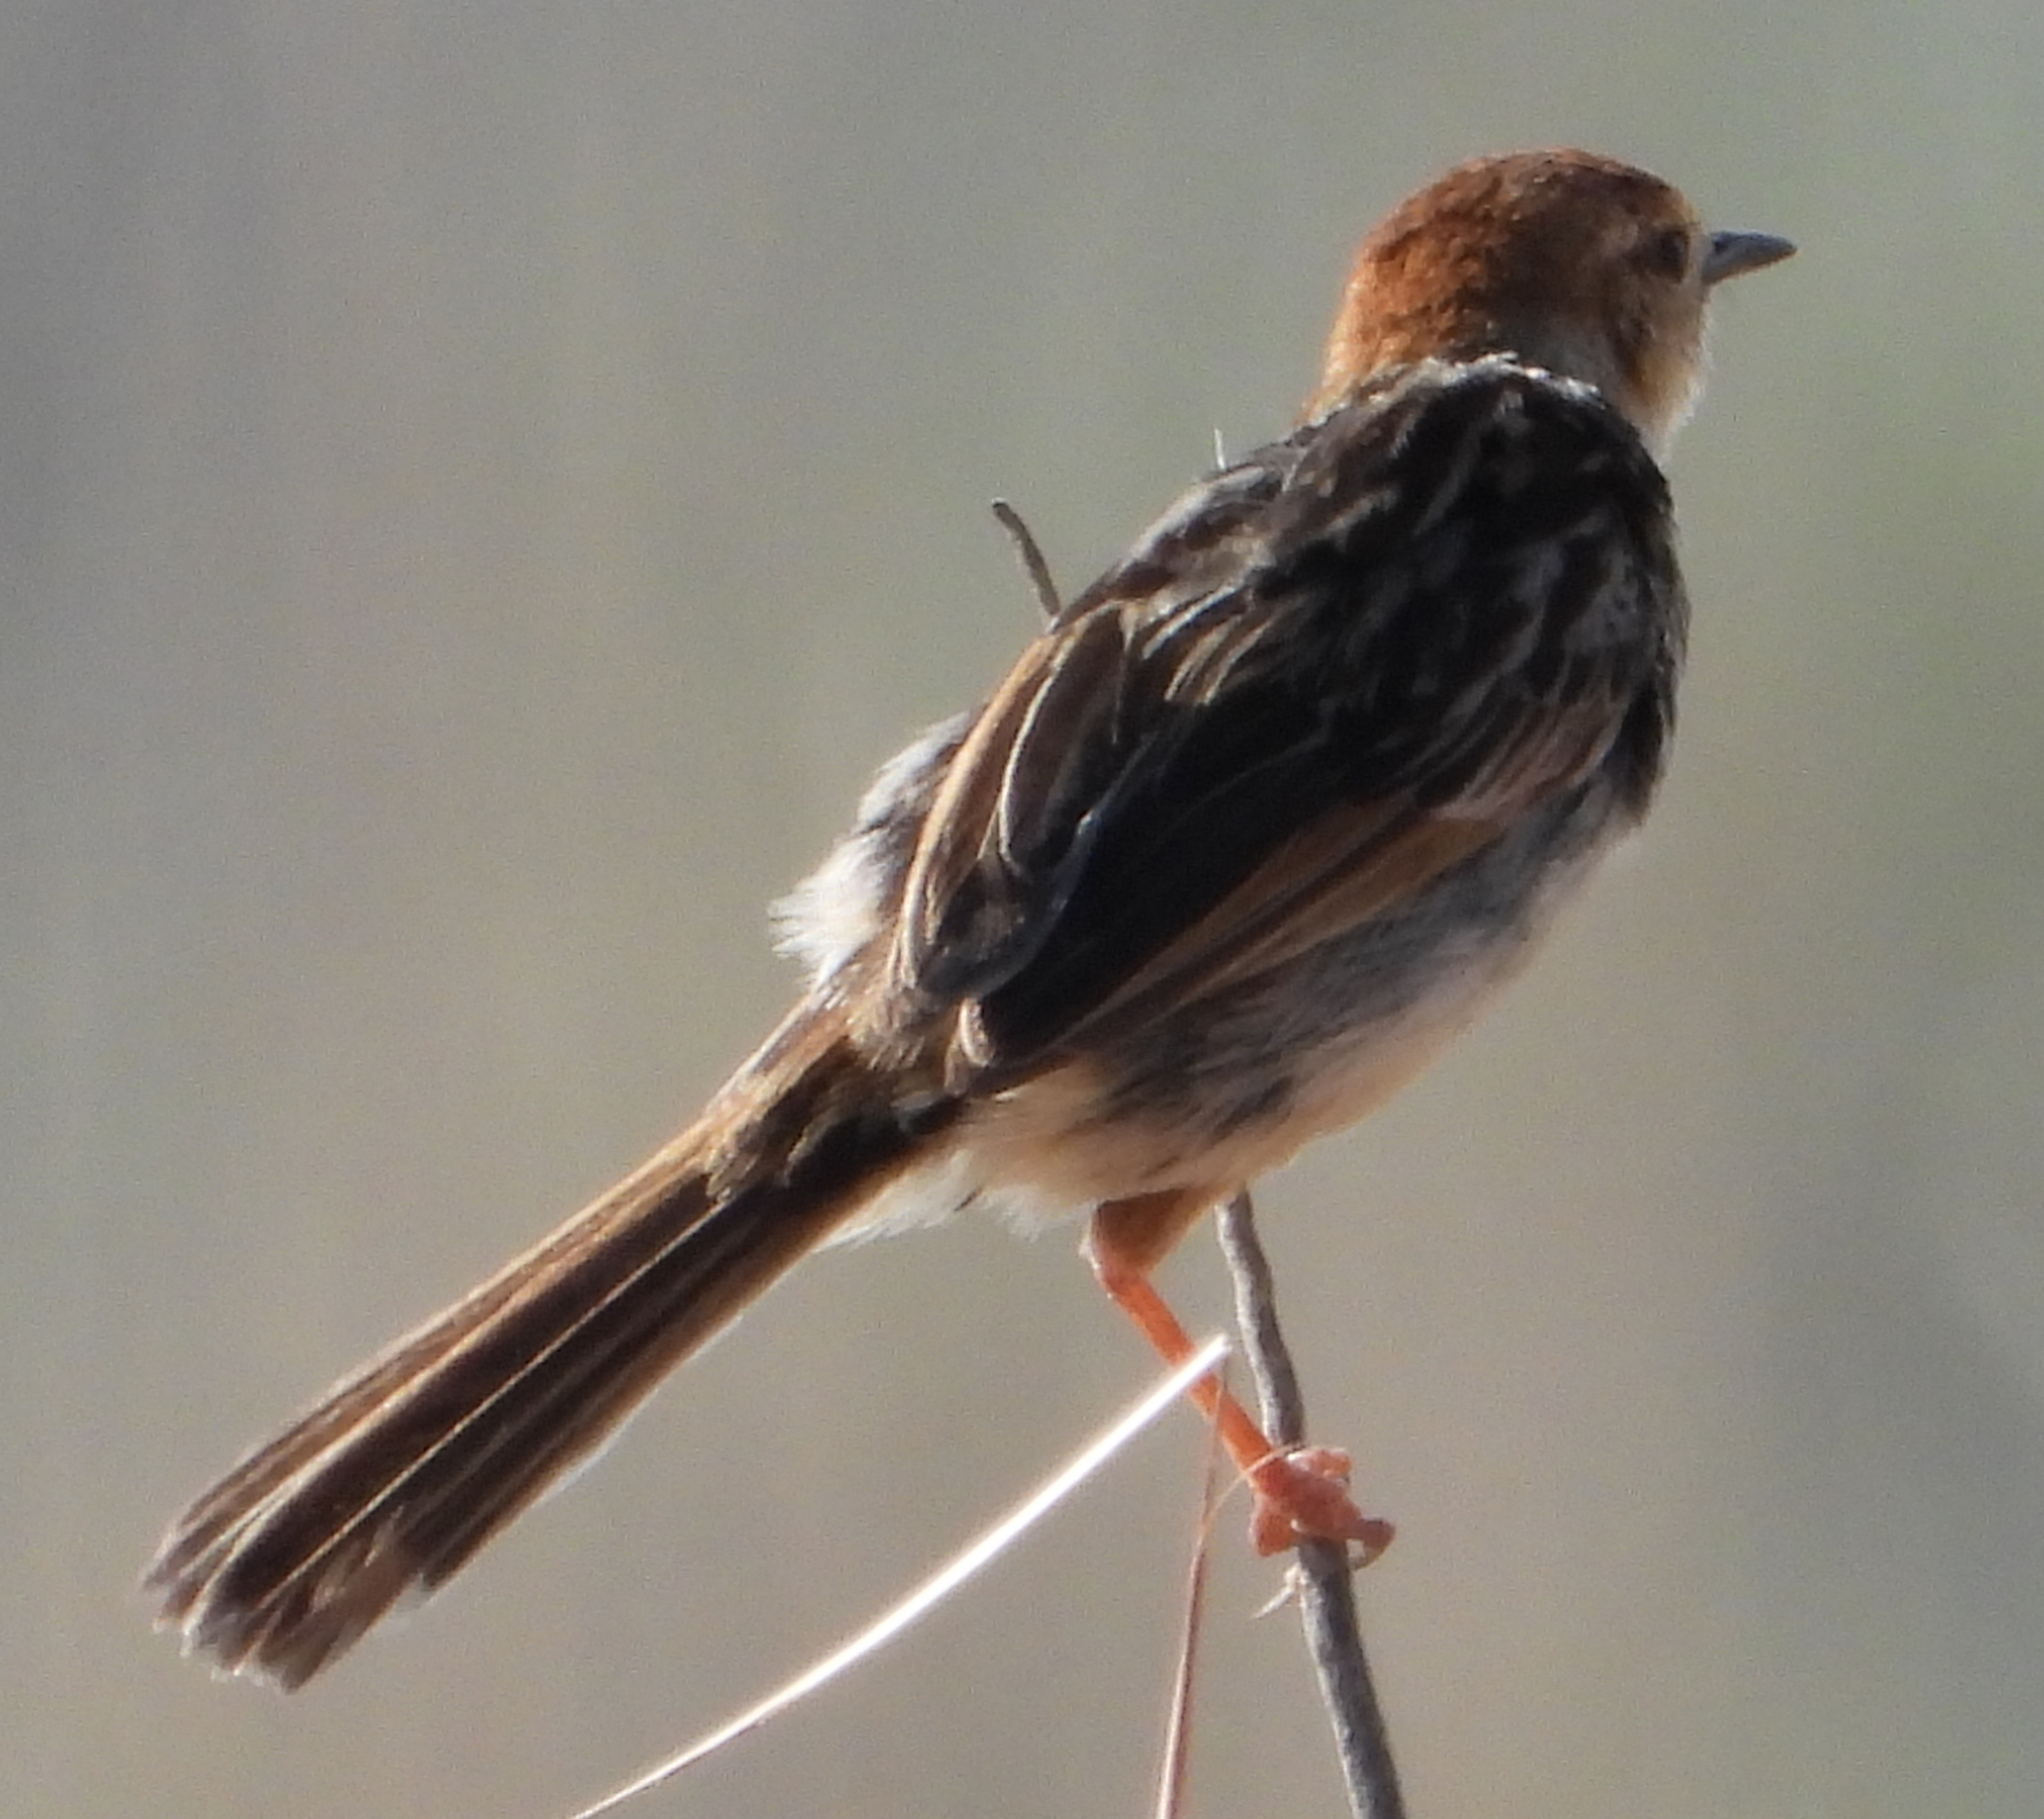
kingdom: Animalia
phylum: Chordata
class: Aves
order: Passeriformes
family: Cisticolidae
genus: Cisticola
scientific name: Cisticola tinniens
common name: Levaillant's cisticola
